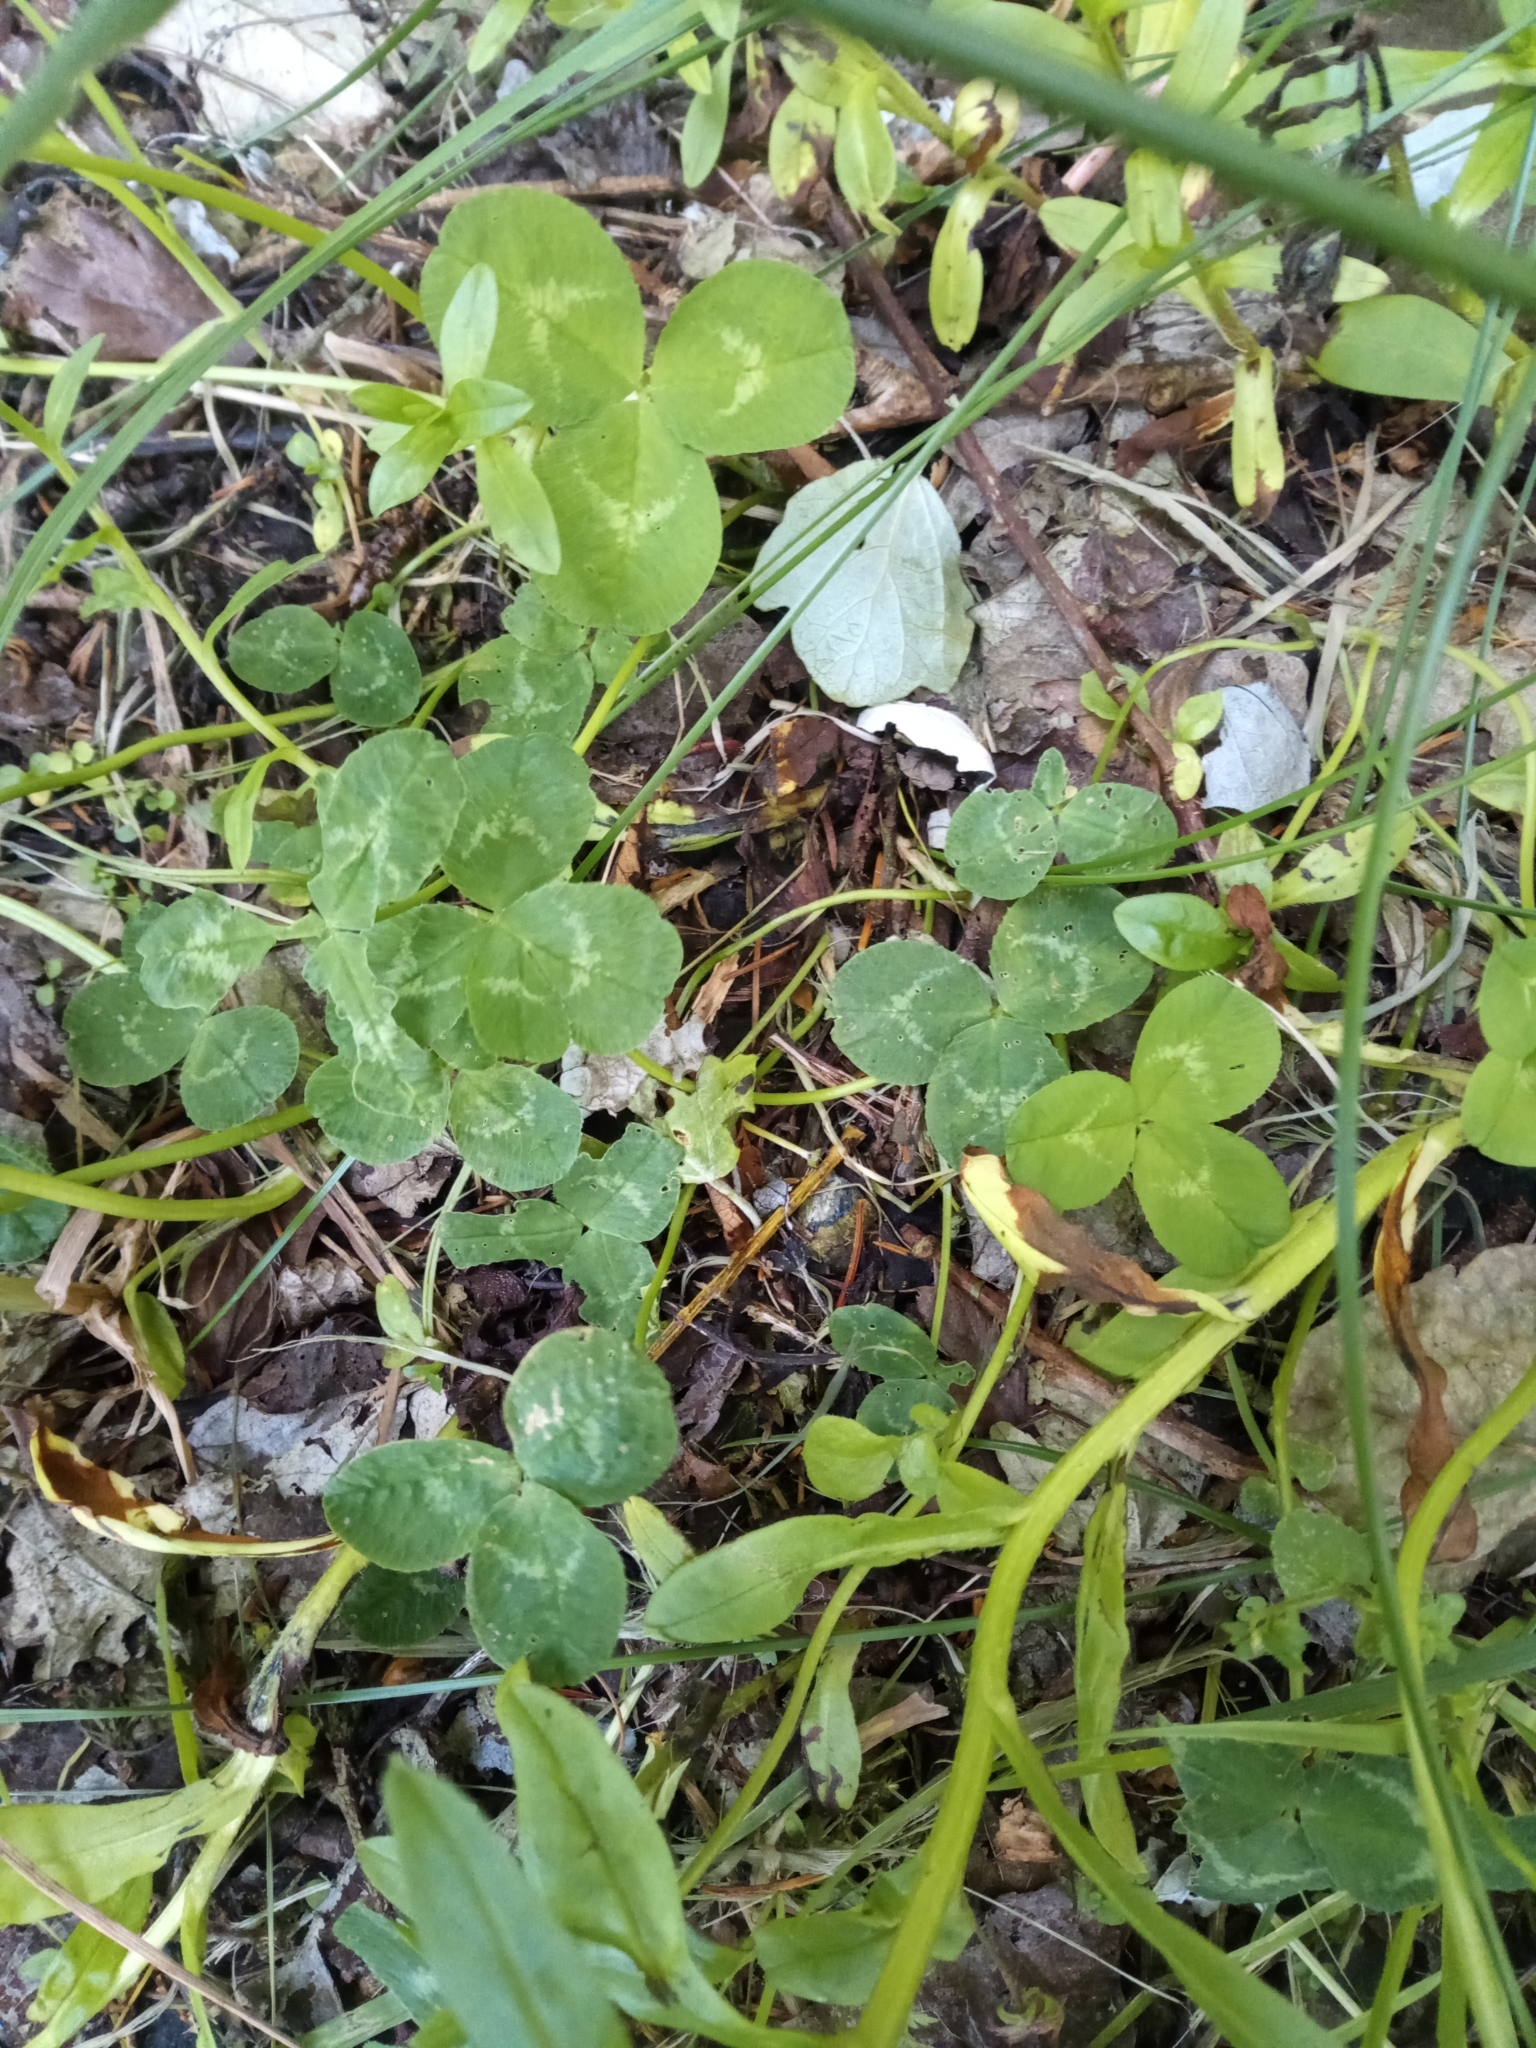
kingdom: Plantae
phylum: Tracheophyta
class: Magnoliopsida
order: Fabales
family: Fabaceae
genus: Trifolium
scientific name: Trifolium repens
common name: White clover
